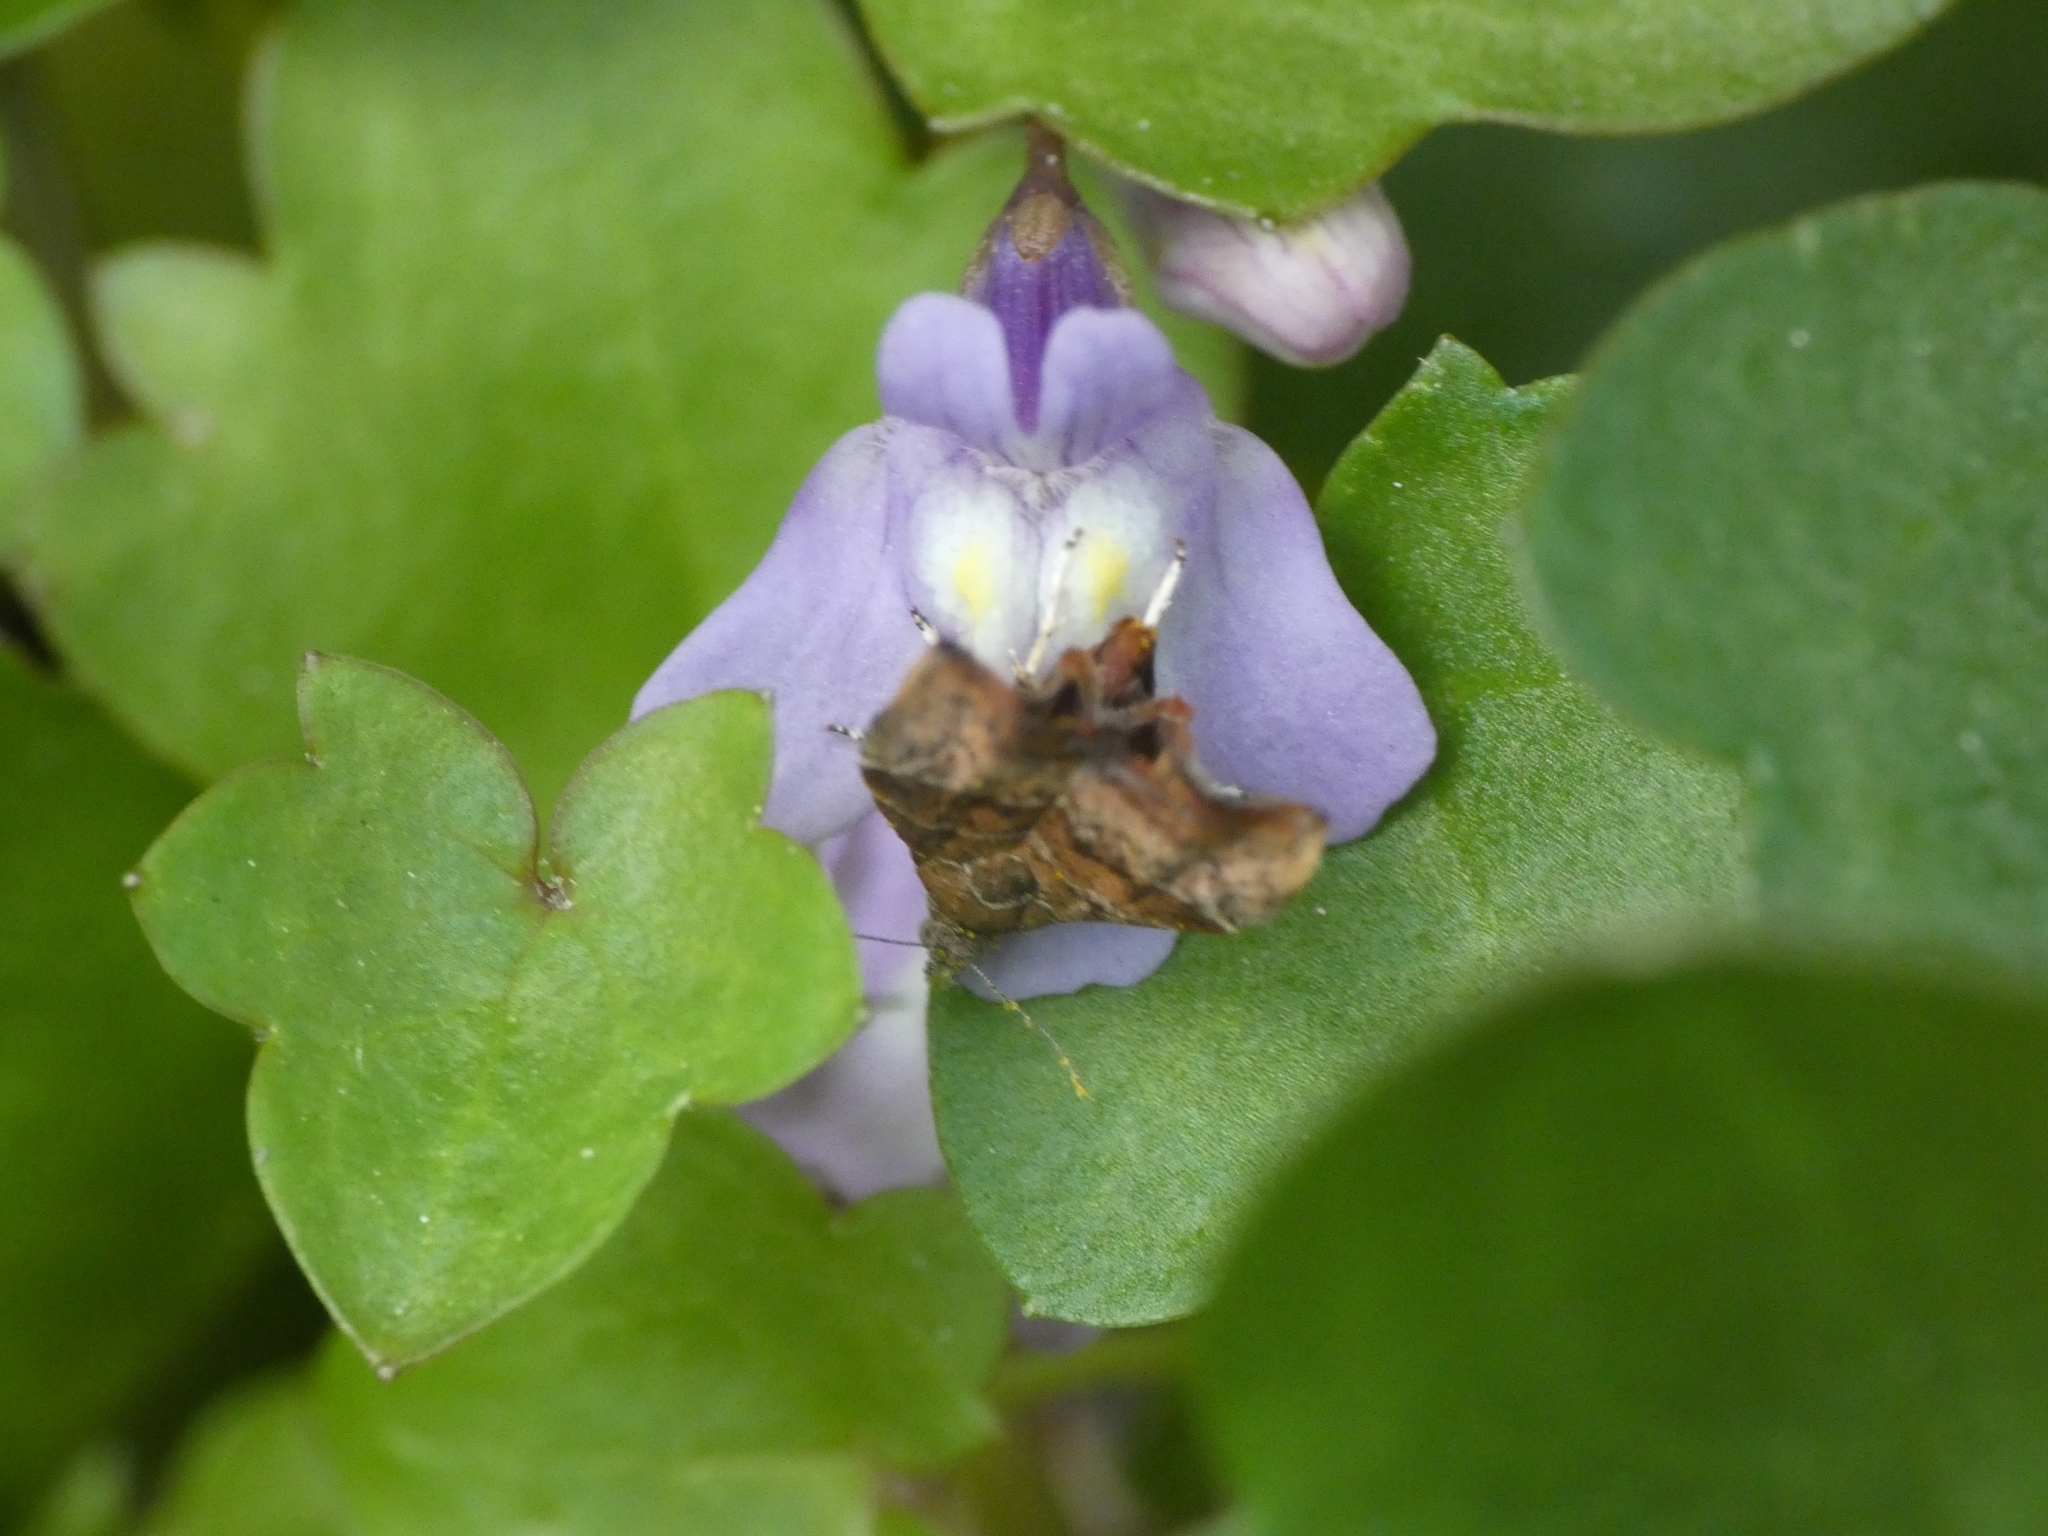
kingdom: Animalia
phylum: Arthropoda
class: Insecta
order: Lepidoptera
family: Choreutidae
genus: Anthophila
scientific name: Anthophila nemorana
